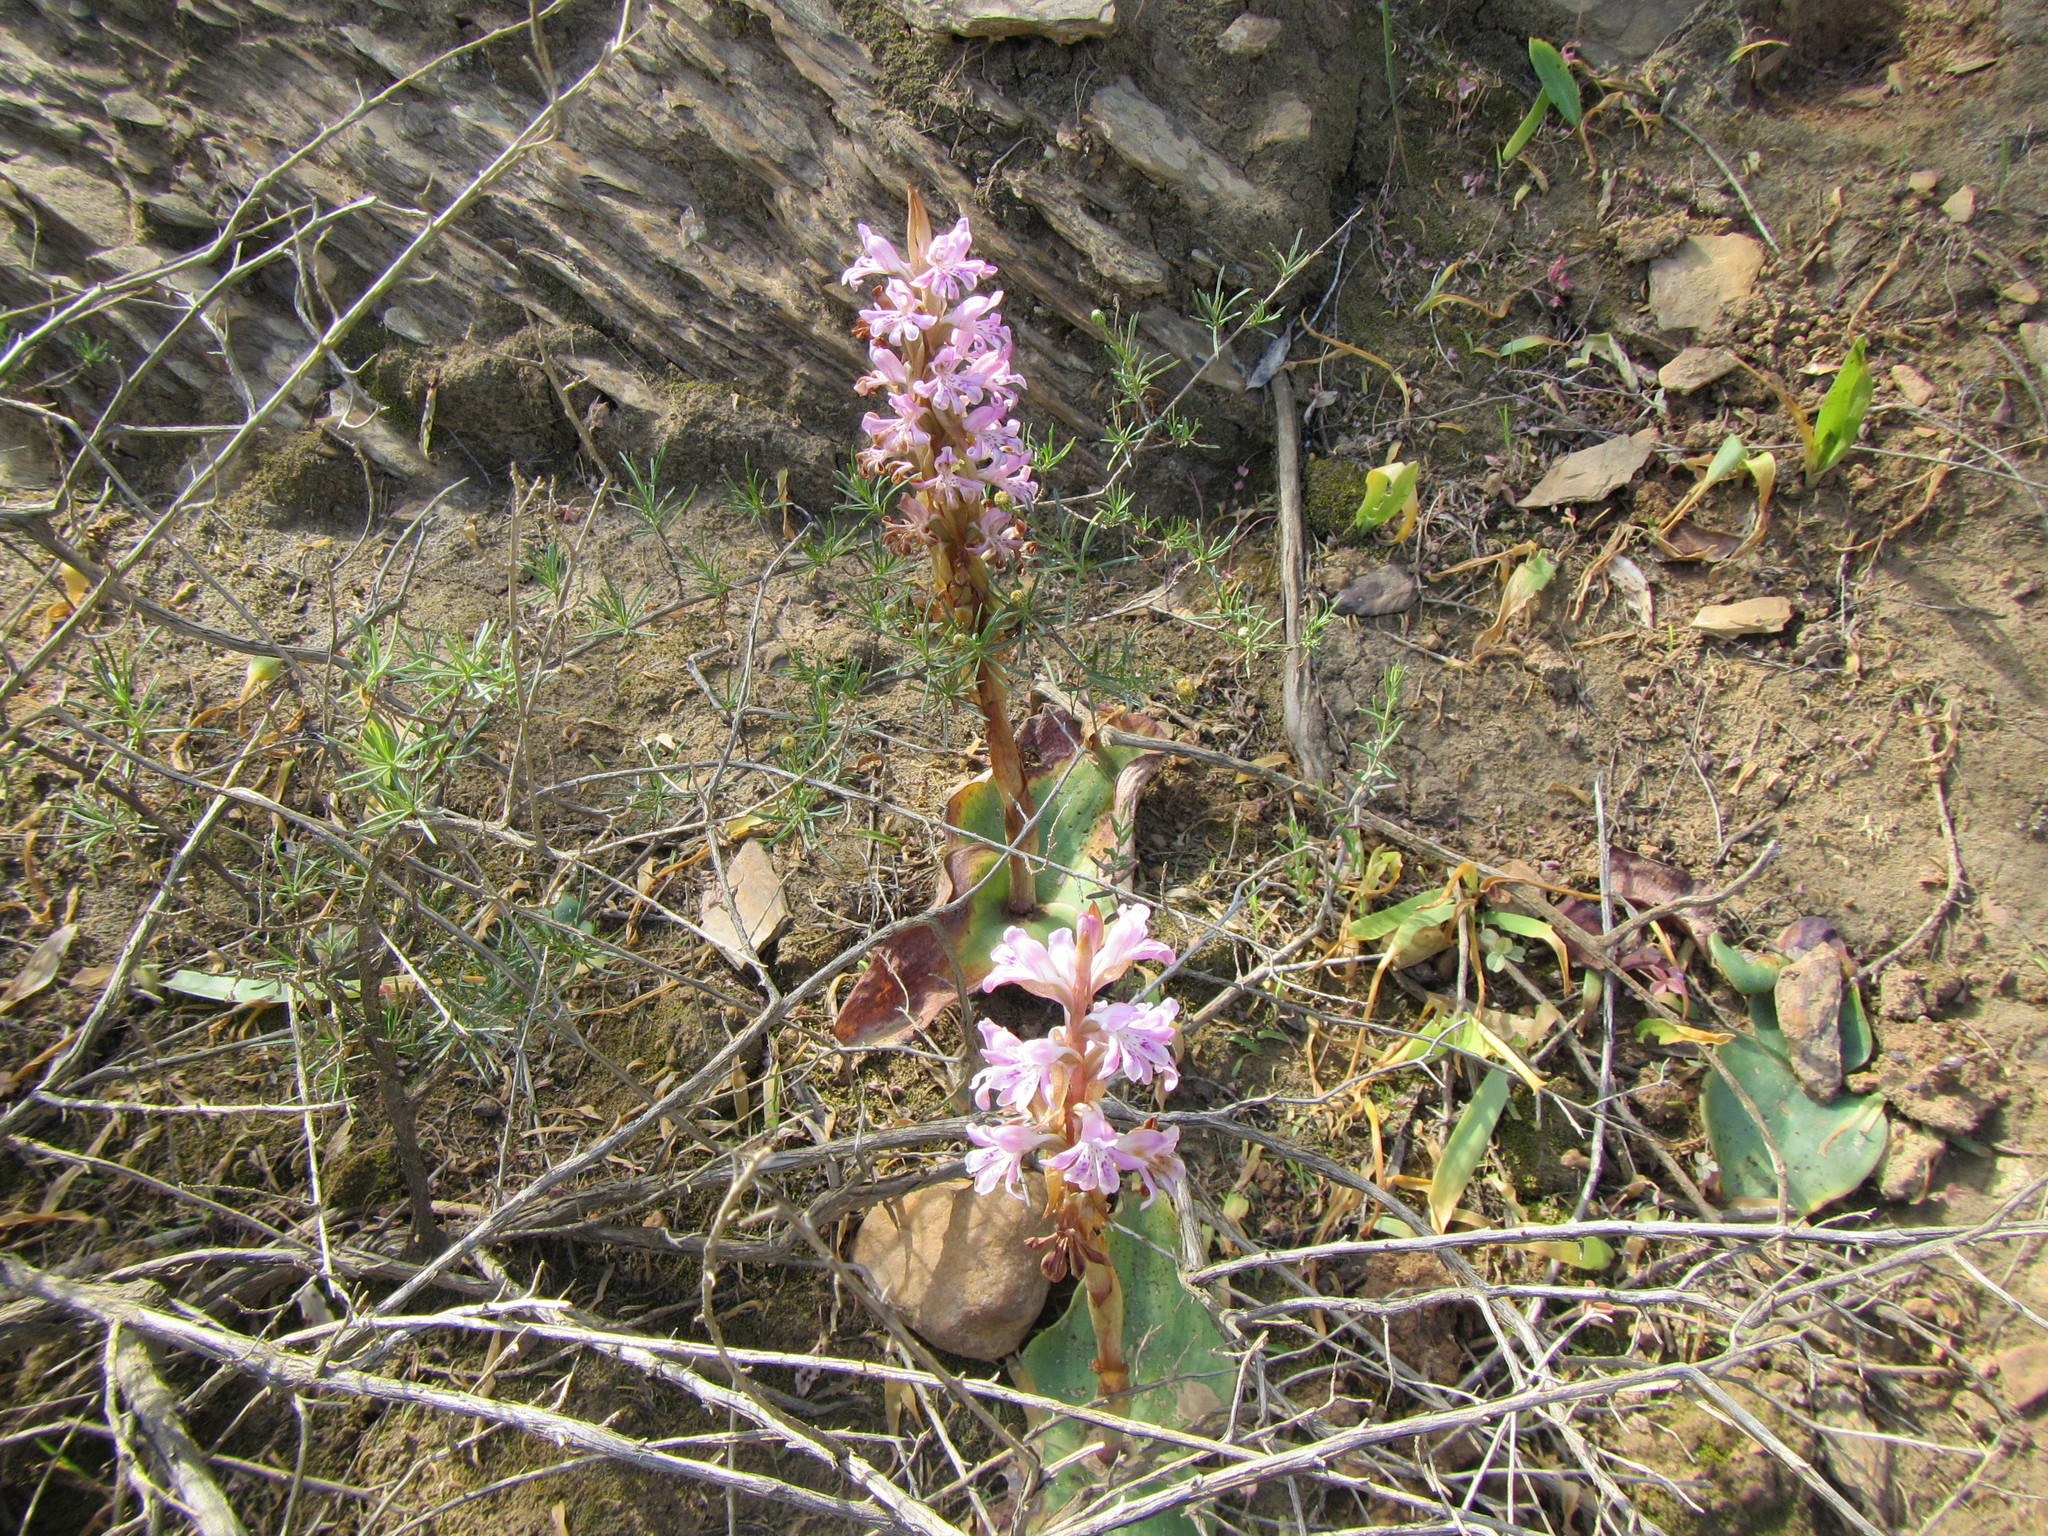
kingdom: Plantae
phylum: Tracheophyta
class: Liliopsida
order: Asparagales
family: Orchidaceae
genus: Satyrium
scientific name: Satyrium erectum
